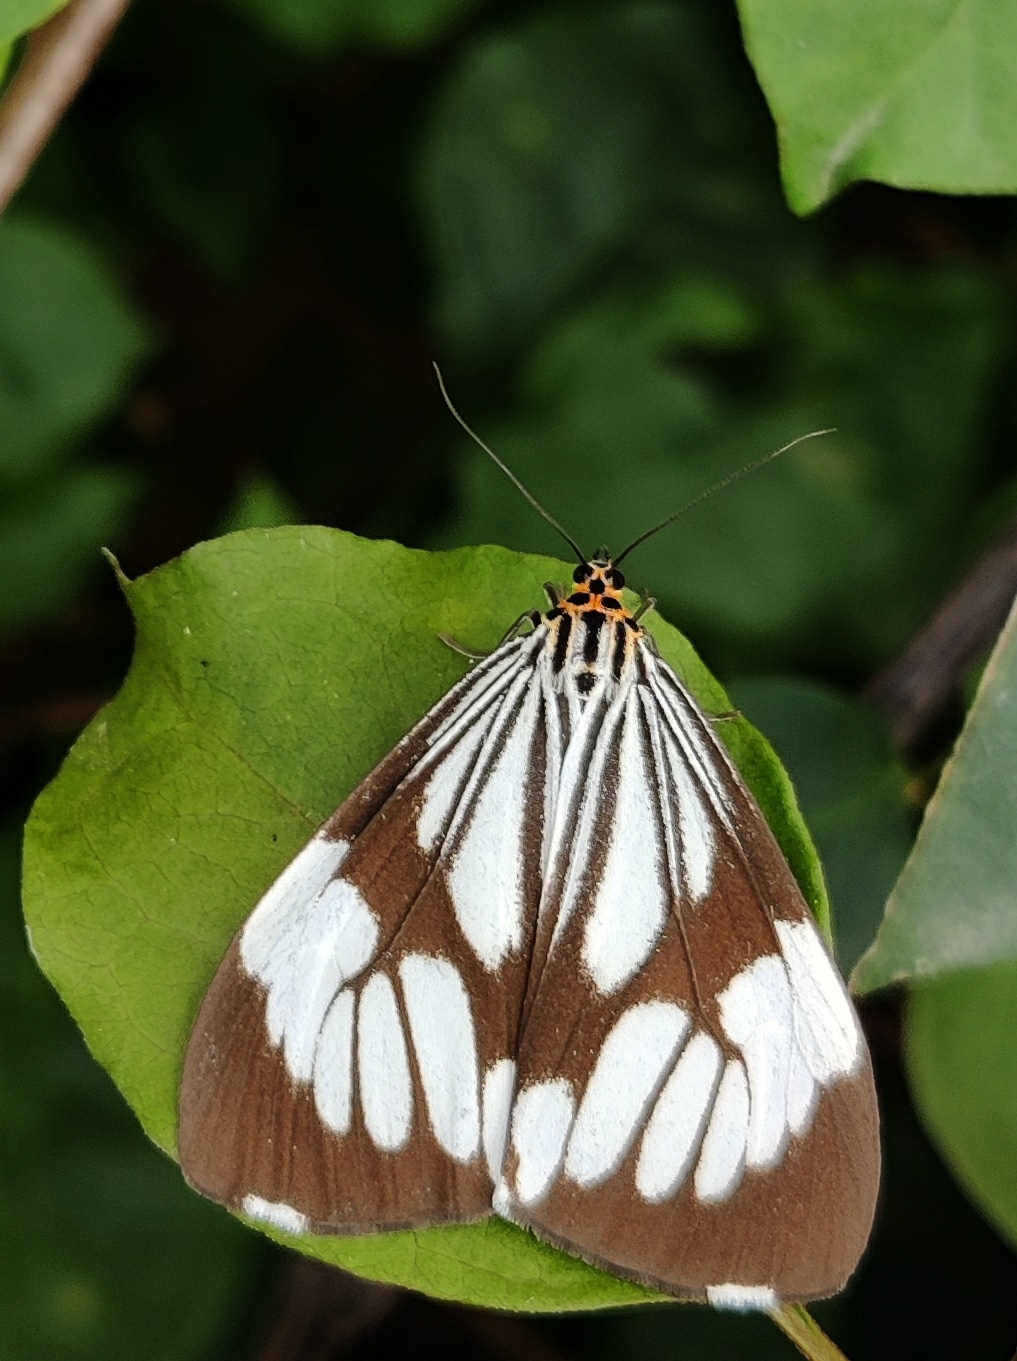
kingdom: Animalia
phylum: Arthropoda
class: Insecta
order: Lepidoptera
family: Erebidae
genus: Nyctemera
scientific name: Nyctemera coleta
